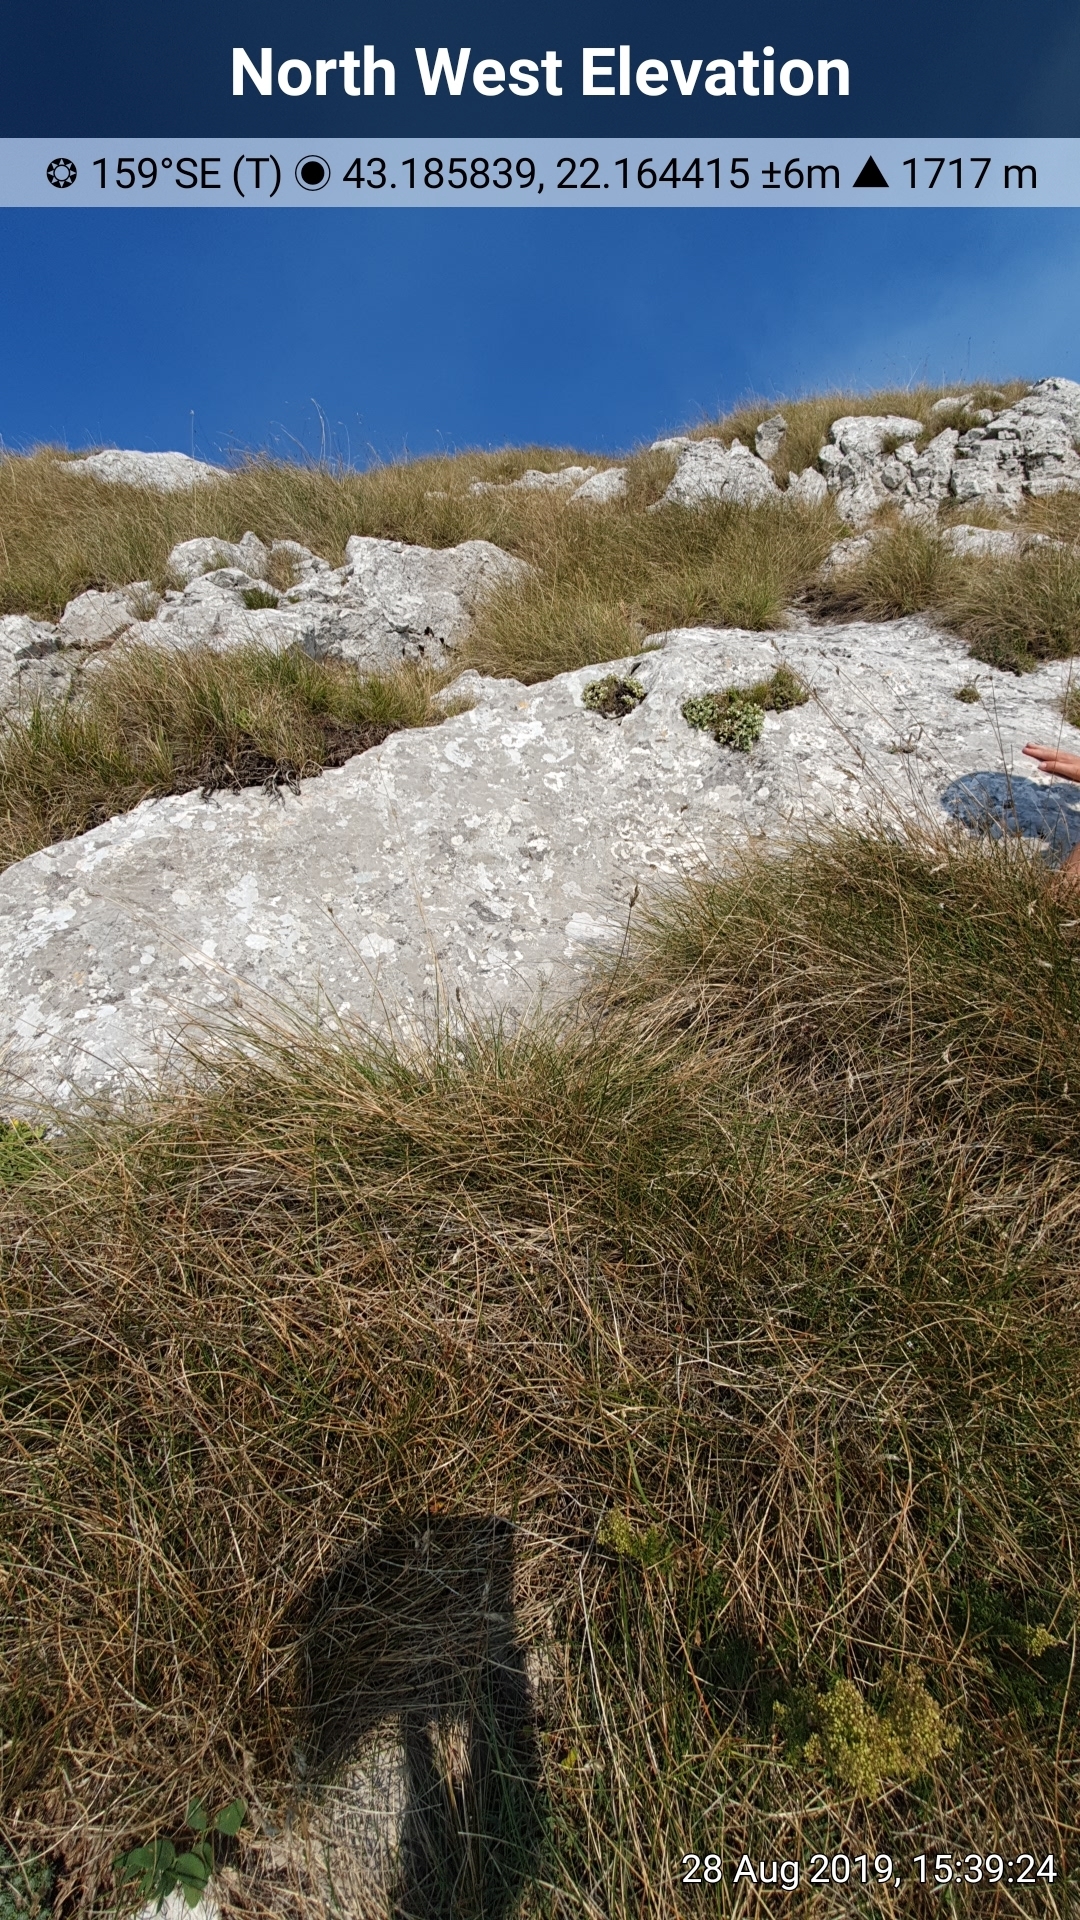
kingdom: Plantae
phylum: Tracheophyta
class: Magnoliopsida
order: Rosales
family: Rosaceae
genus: Potentilla
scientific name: Potentilla apennina
